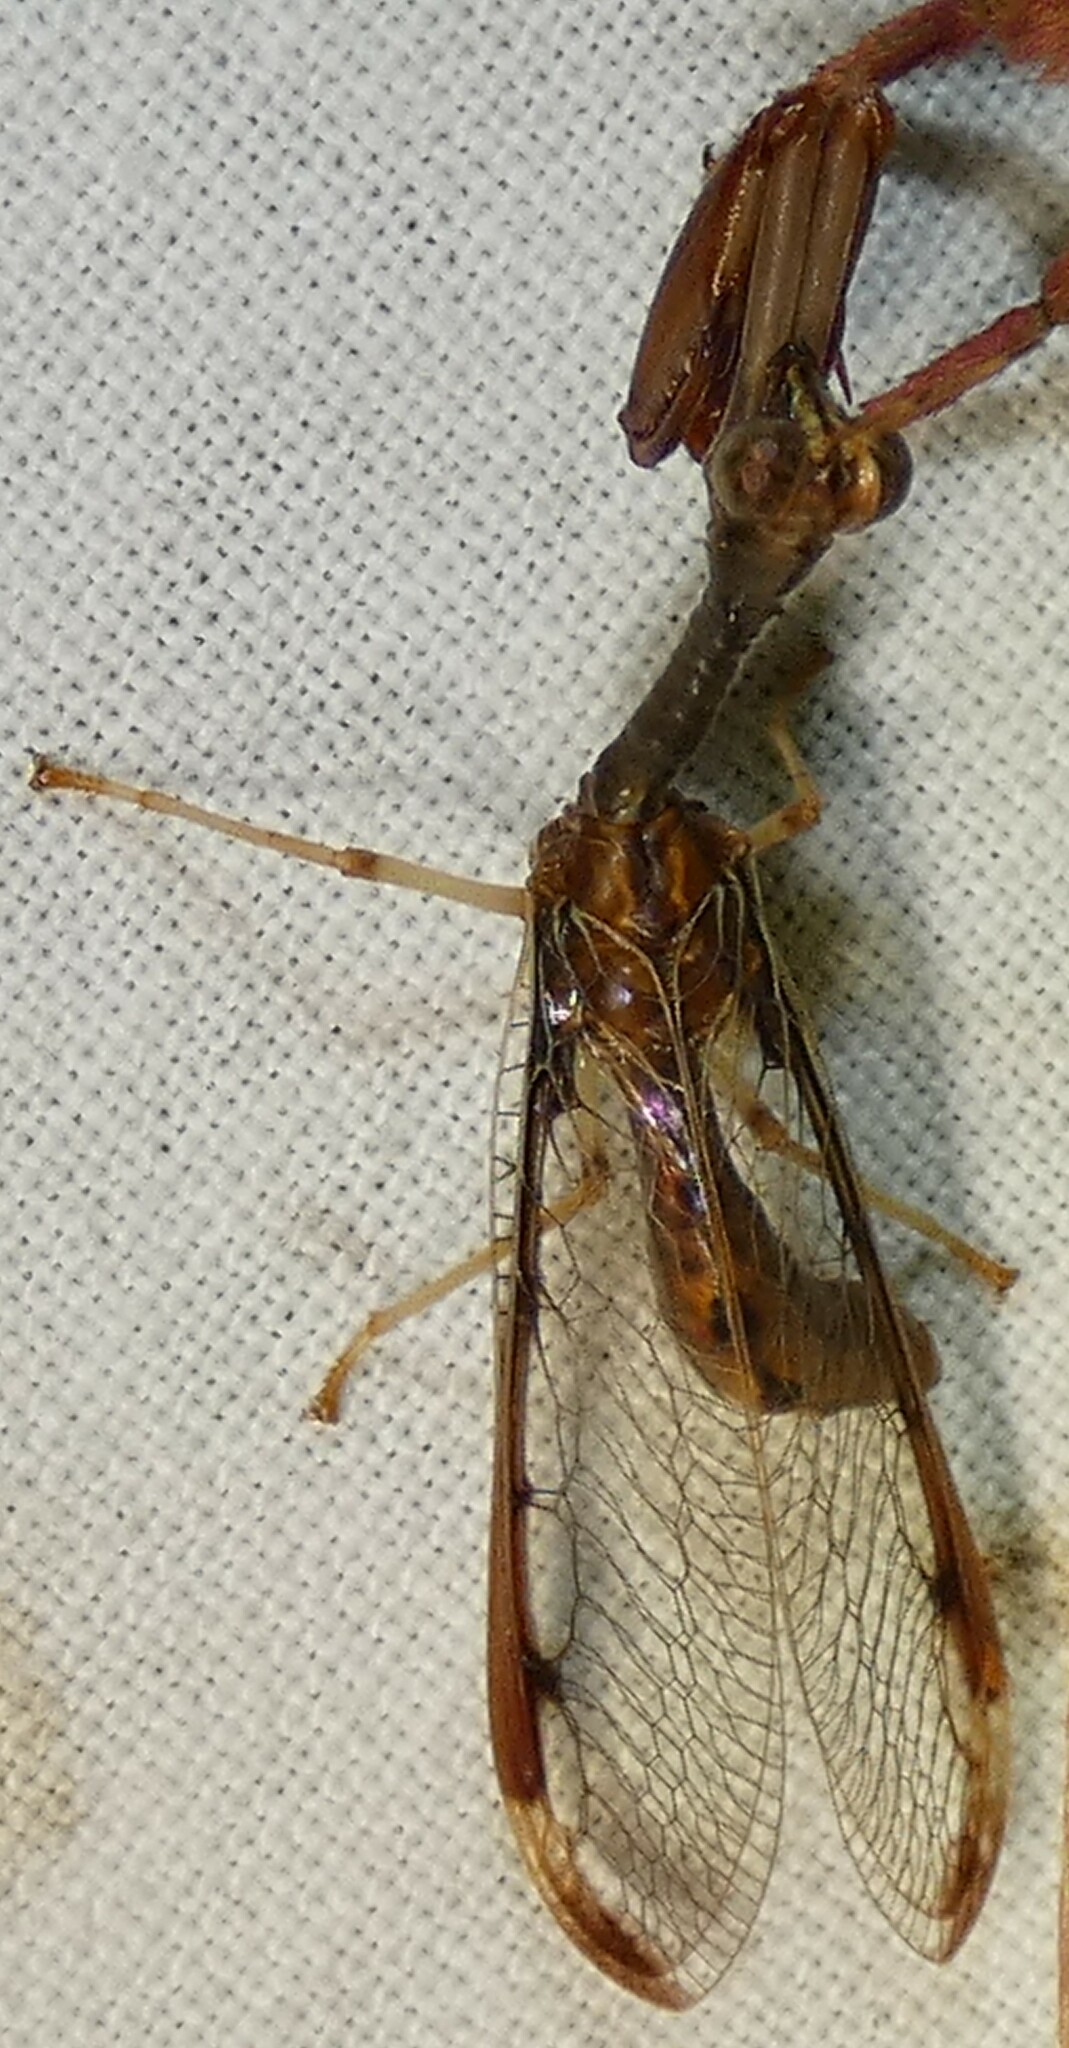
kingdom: Animalia
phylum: Arthropoda
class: Insecta
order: Neuroptera
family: Mantispidae
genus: Dicromantispa
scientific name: Dicromantispa interrupta
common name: Four-spotted mantidfly
